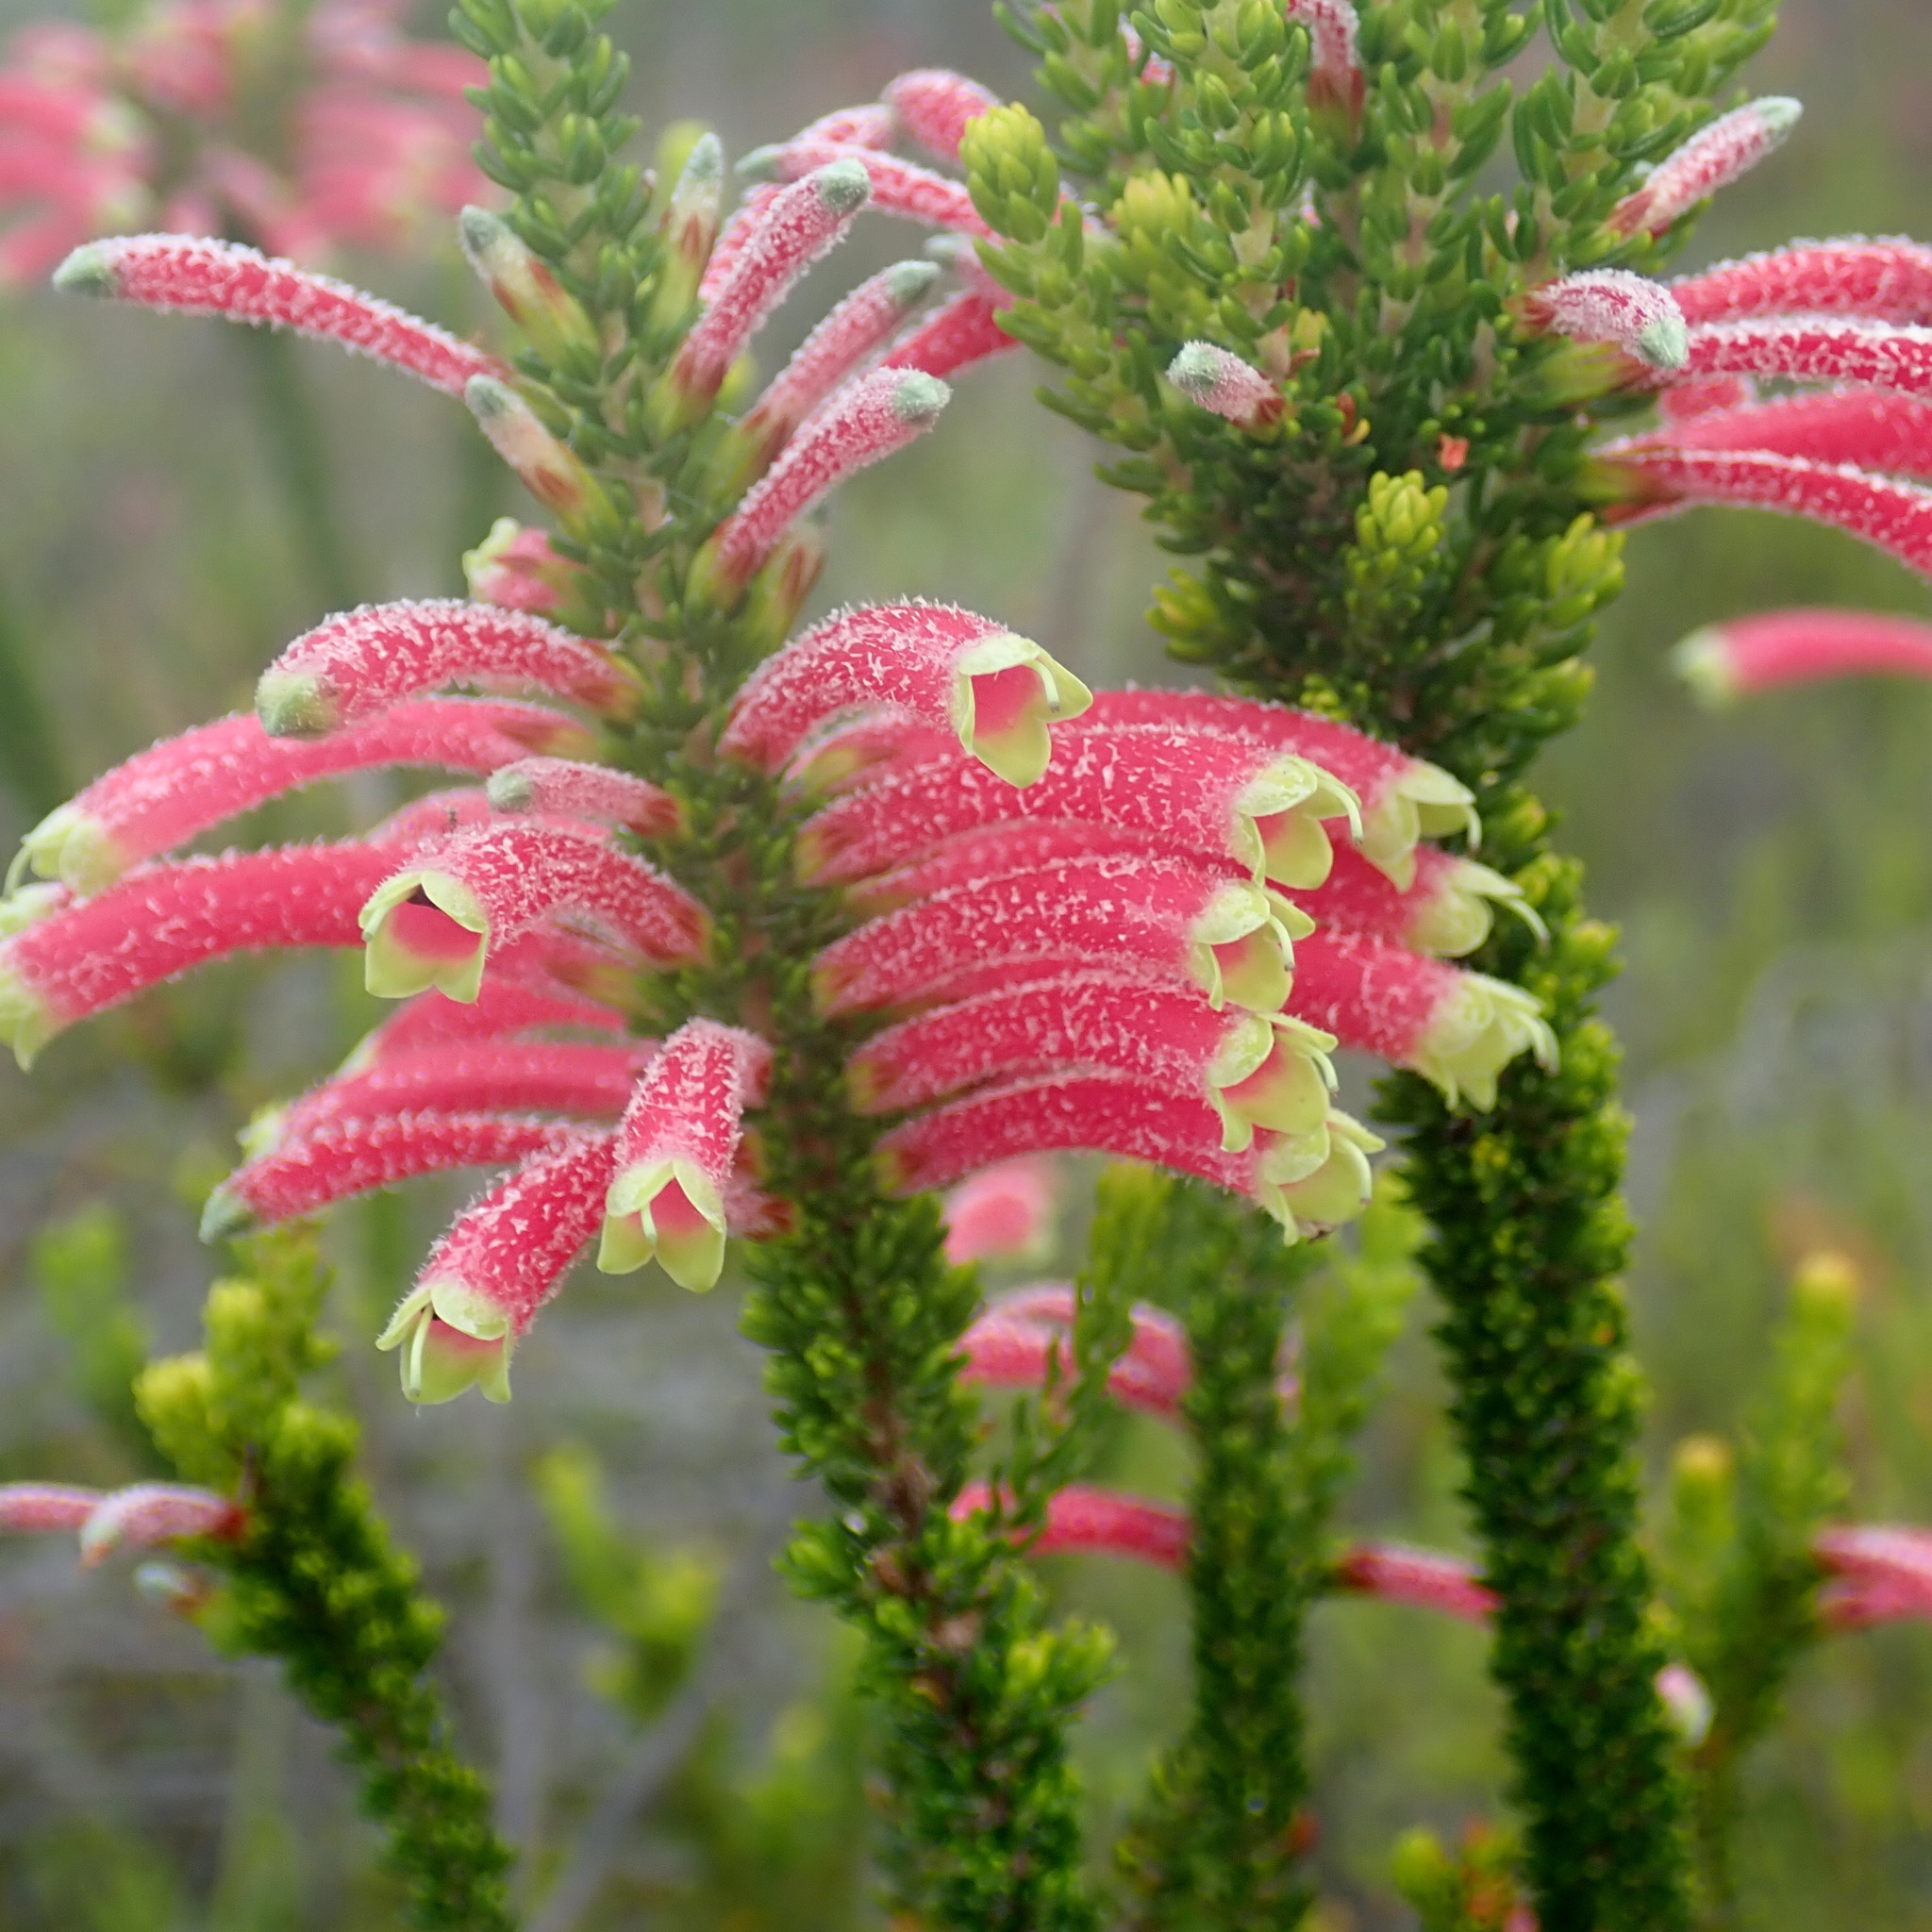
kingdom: Plantae
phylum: Tracheophyta
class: Magnoliopsida
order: Ericales
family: Ericaceae
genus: Erica
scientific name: Erica densifolia
